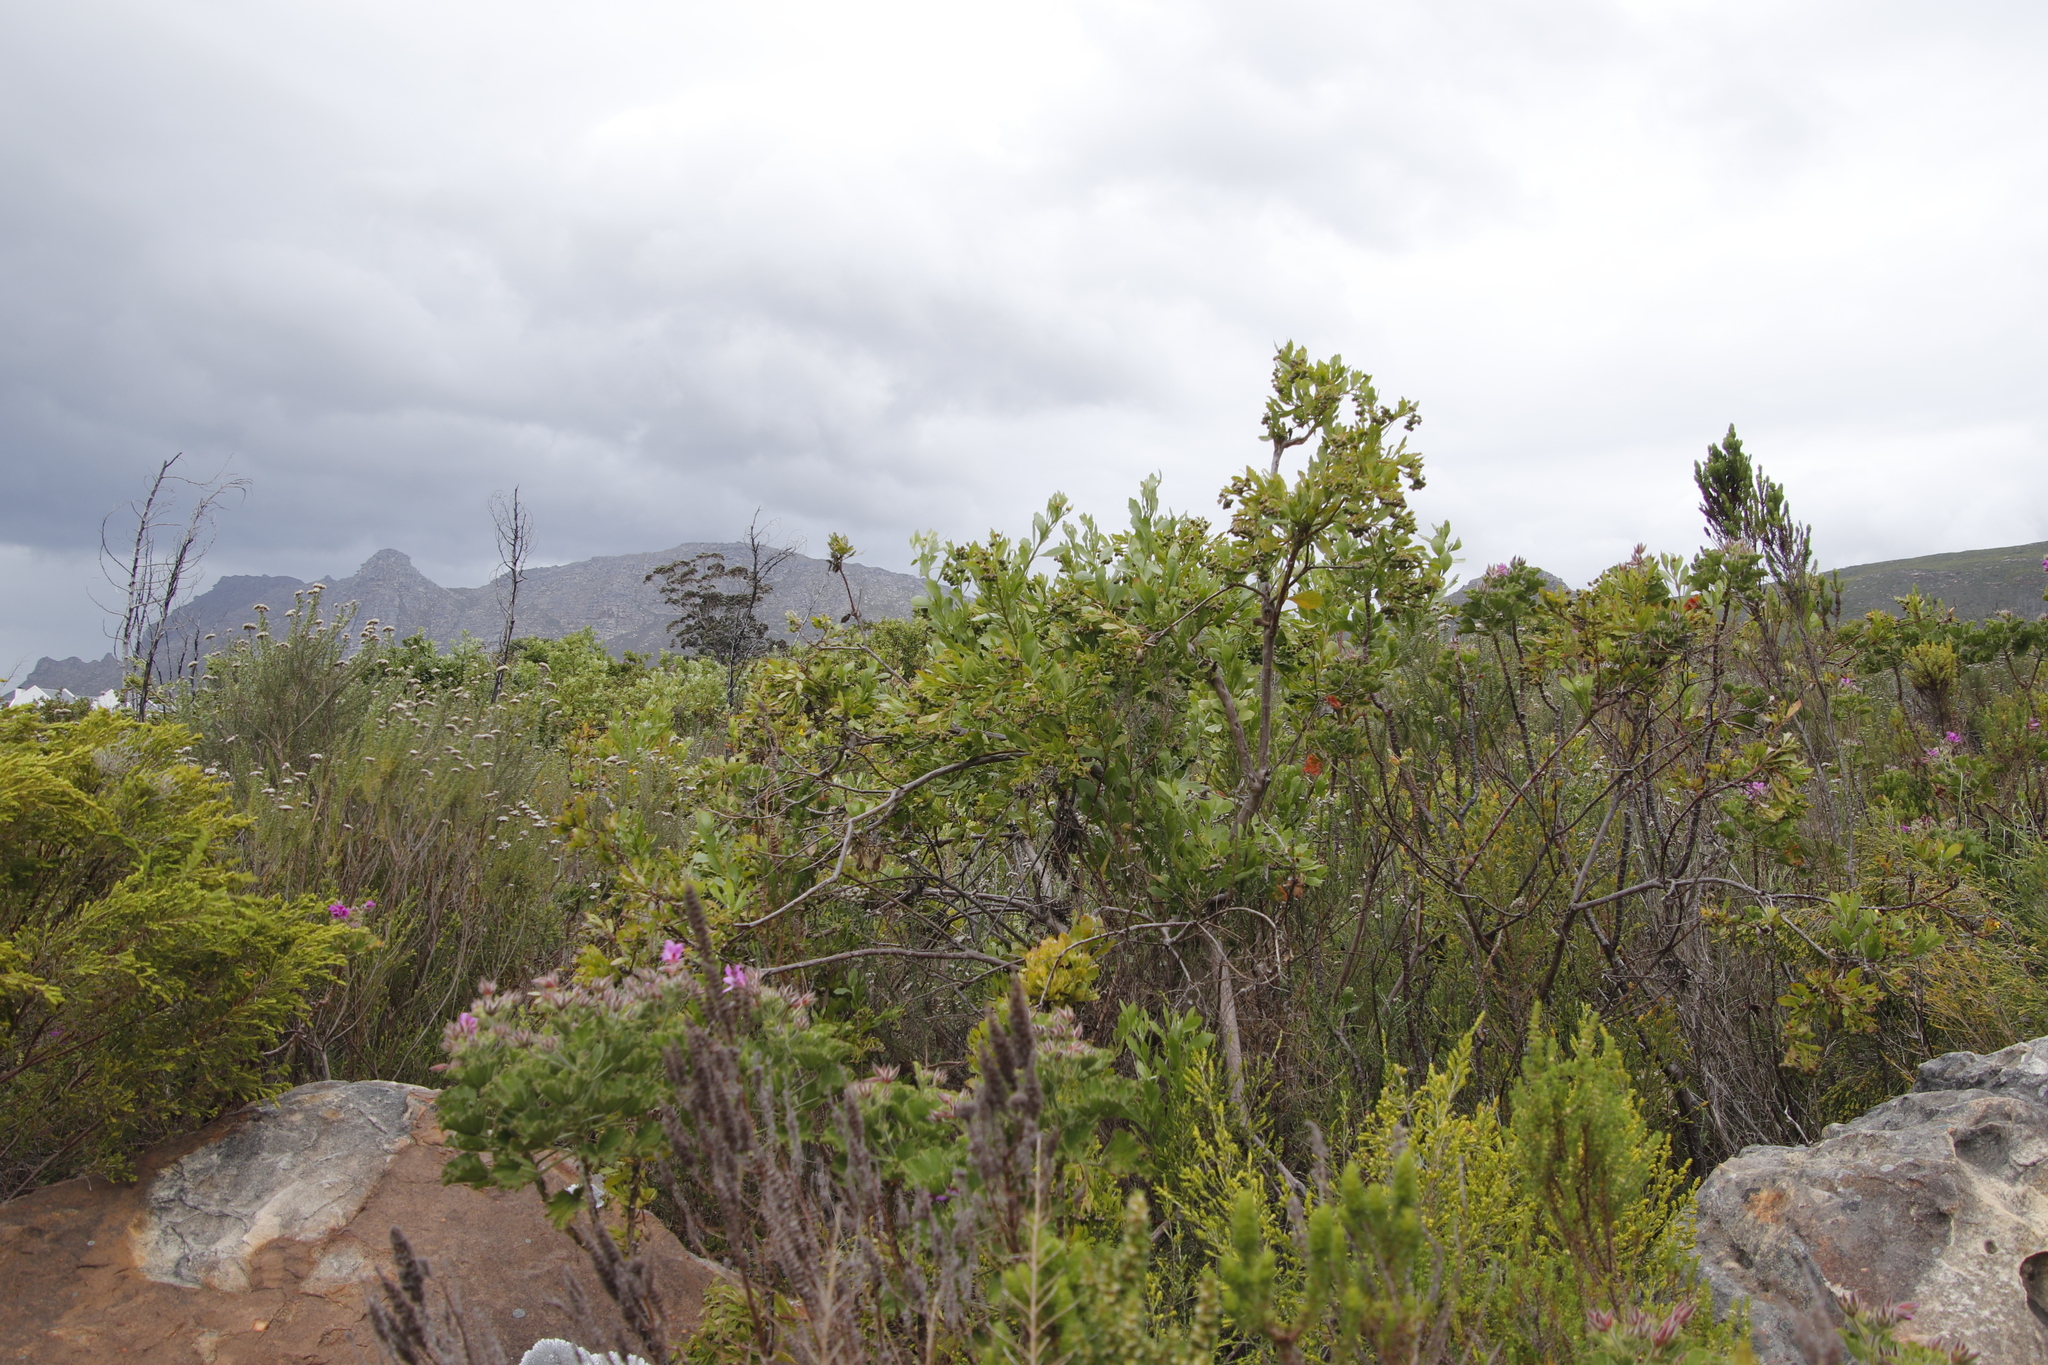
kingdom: Plantae
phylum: Tracheophyta
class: Magnoliopsida
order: Asterales
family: Asteraceae
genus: Osteospermum
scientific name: Osteospermum moniliferum
